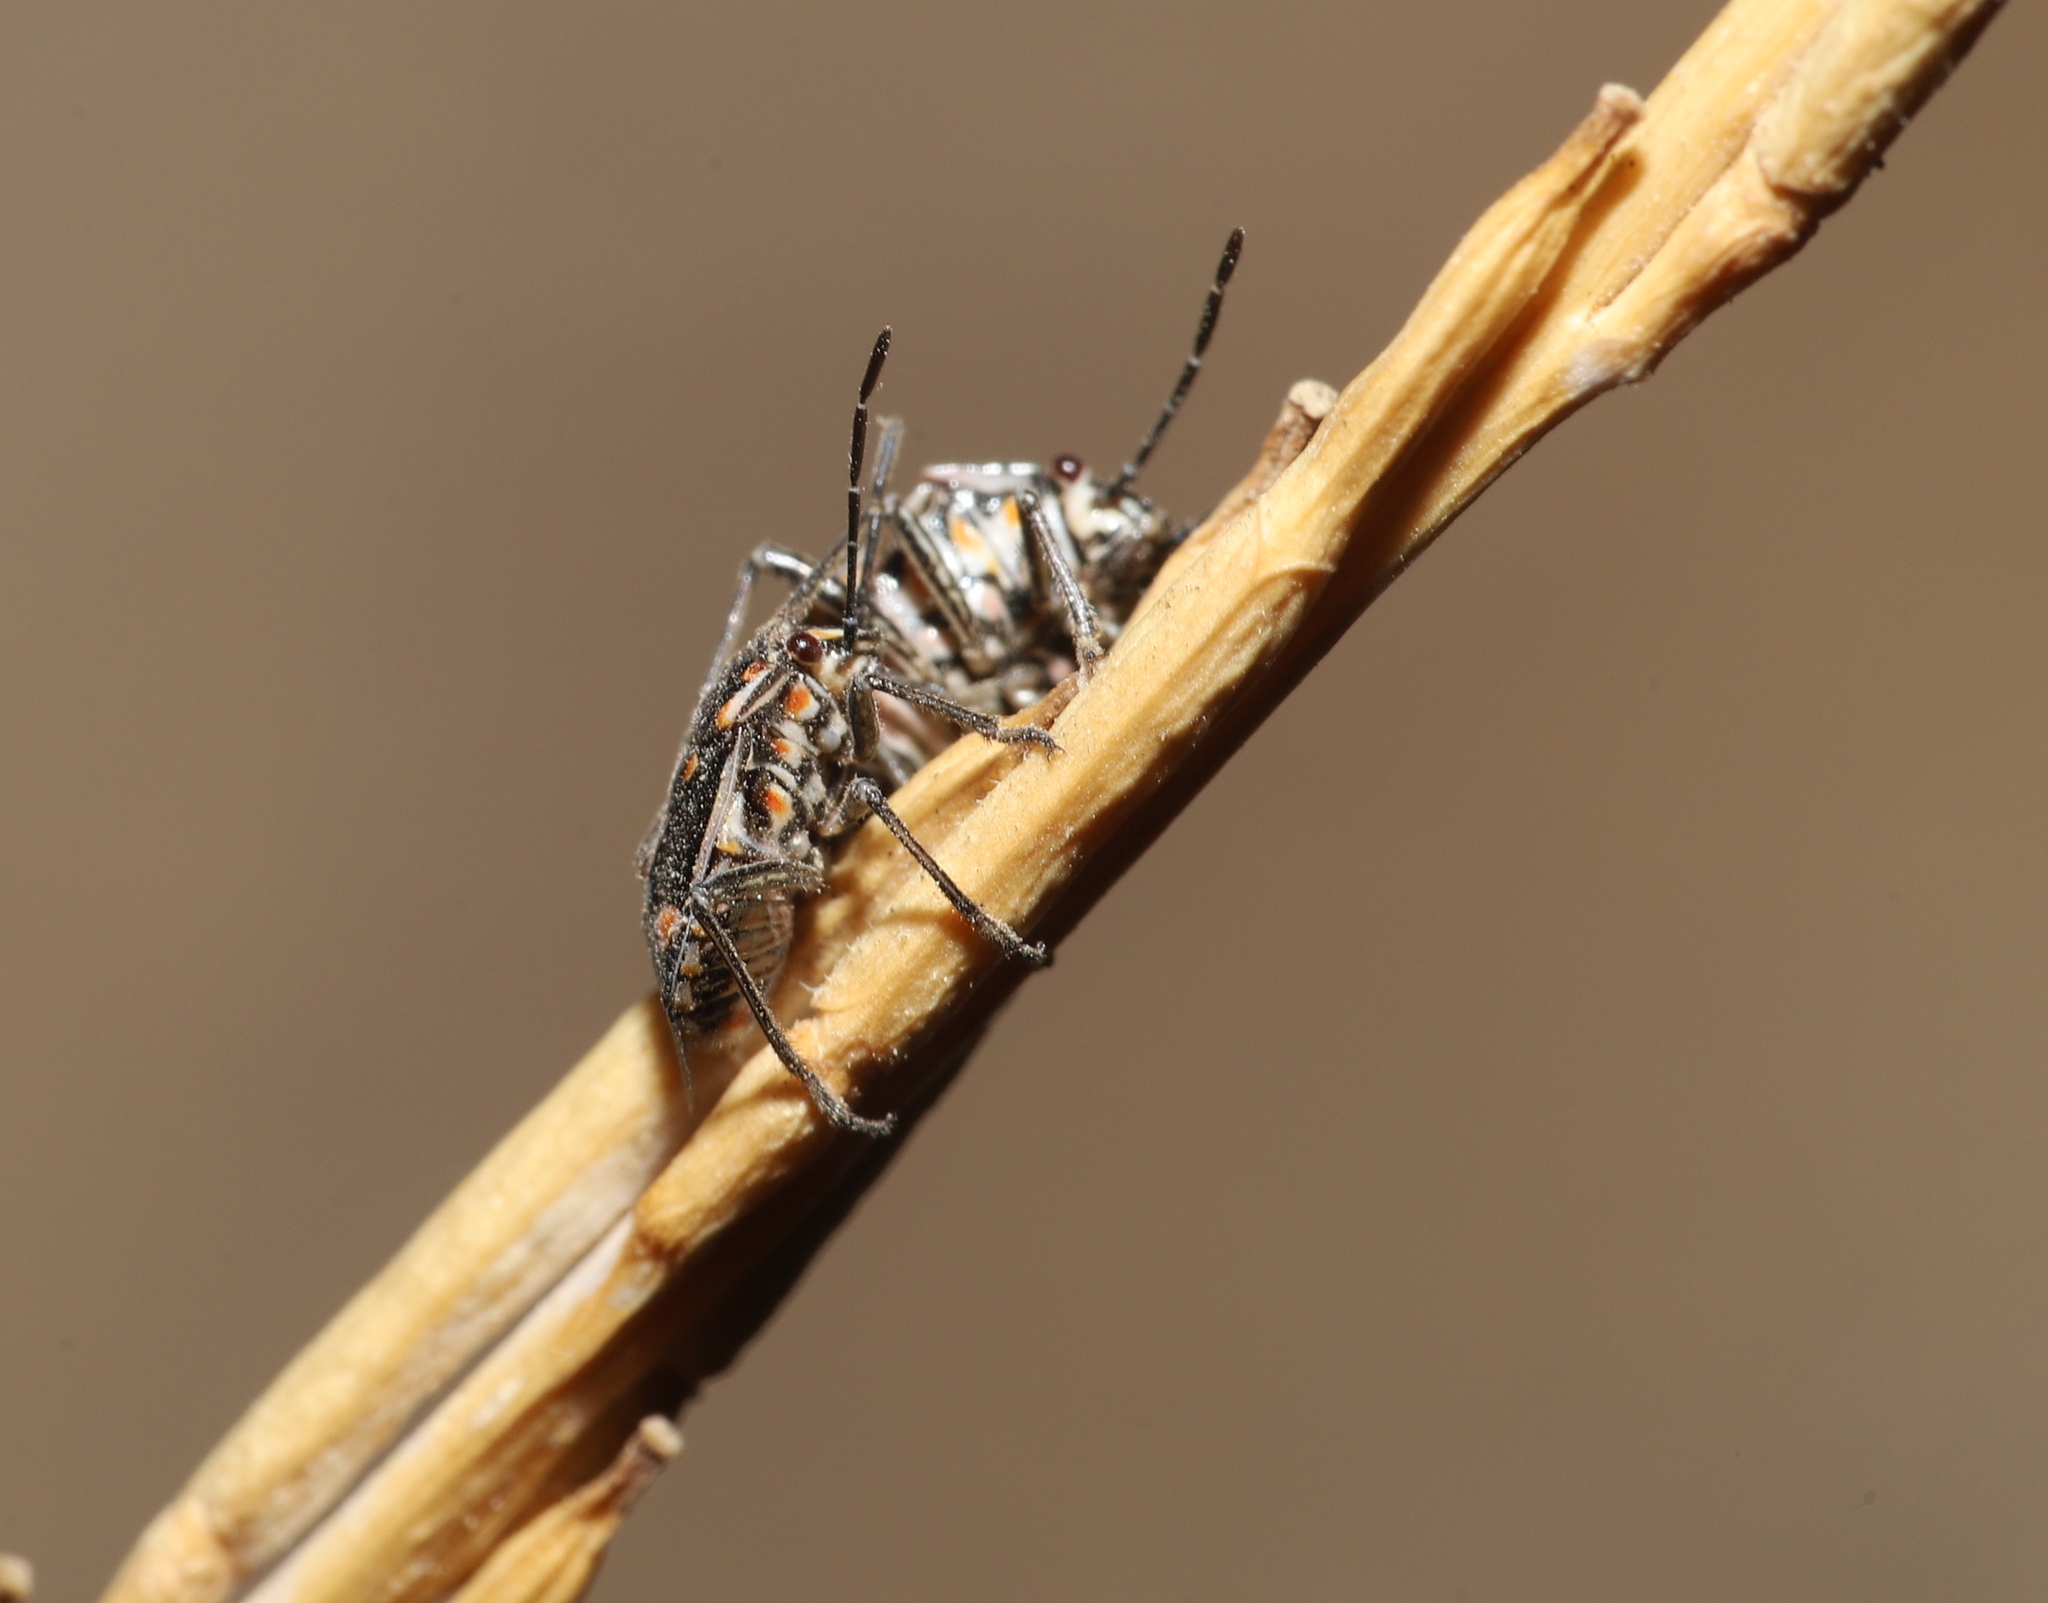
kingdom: Animalia
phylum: Arthropoda
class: Insecta
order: Hemiptera
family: Pentatomidae
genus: Bagrada
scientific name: Bagrada hilaris
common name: Bagrada bug
